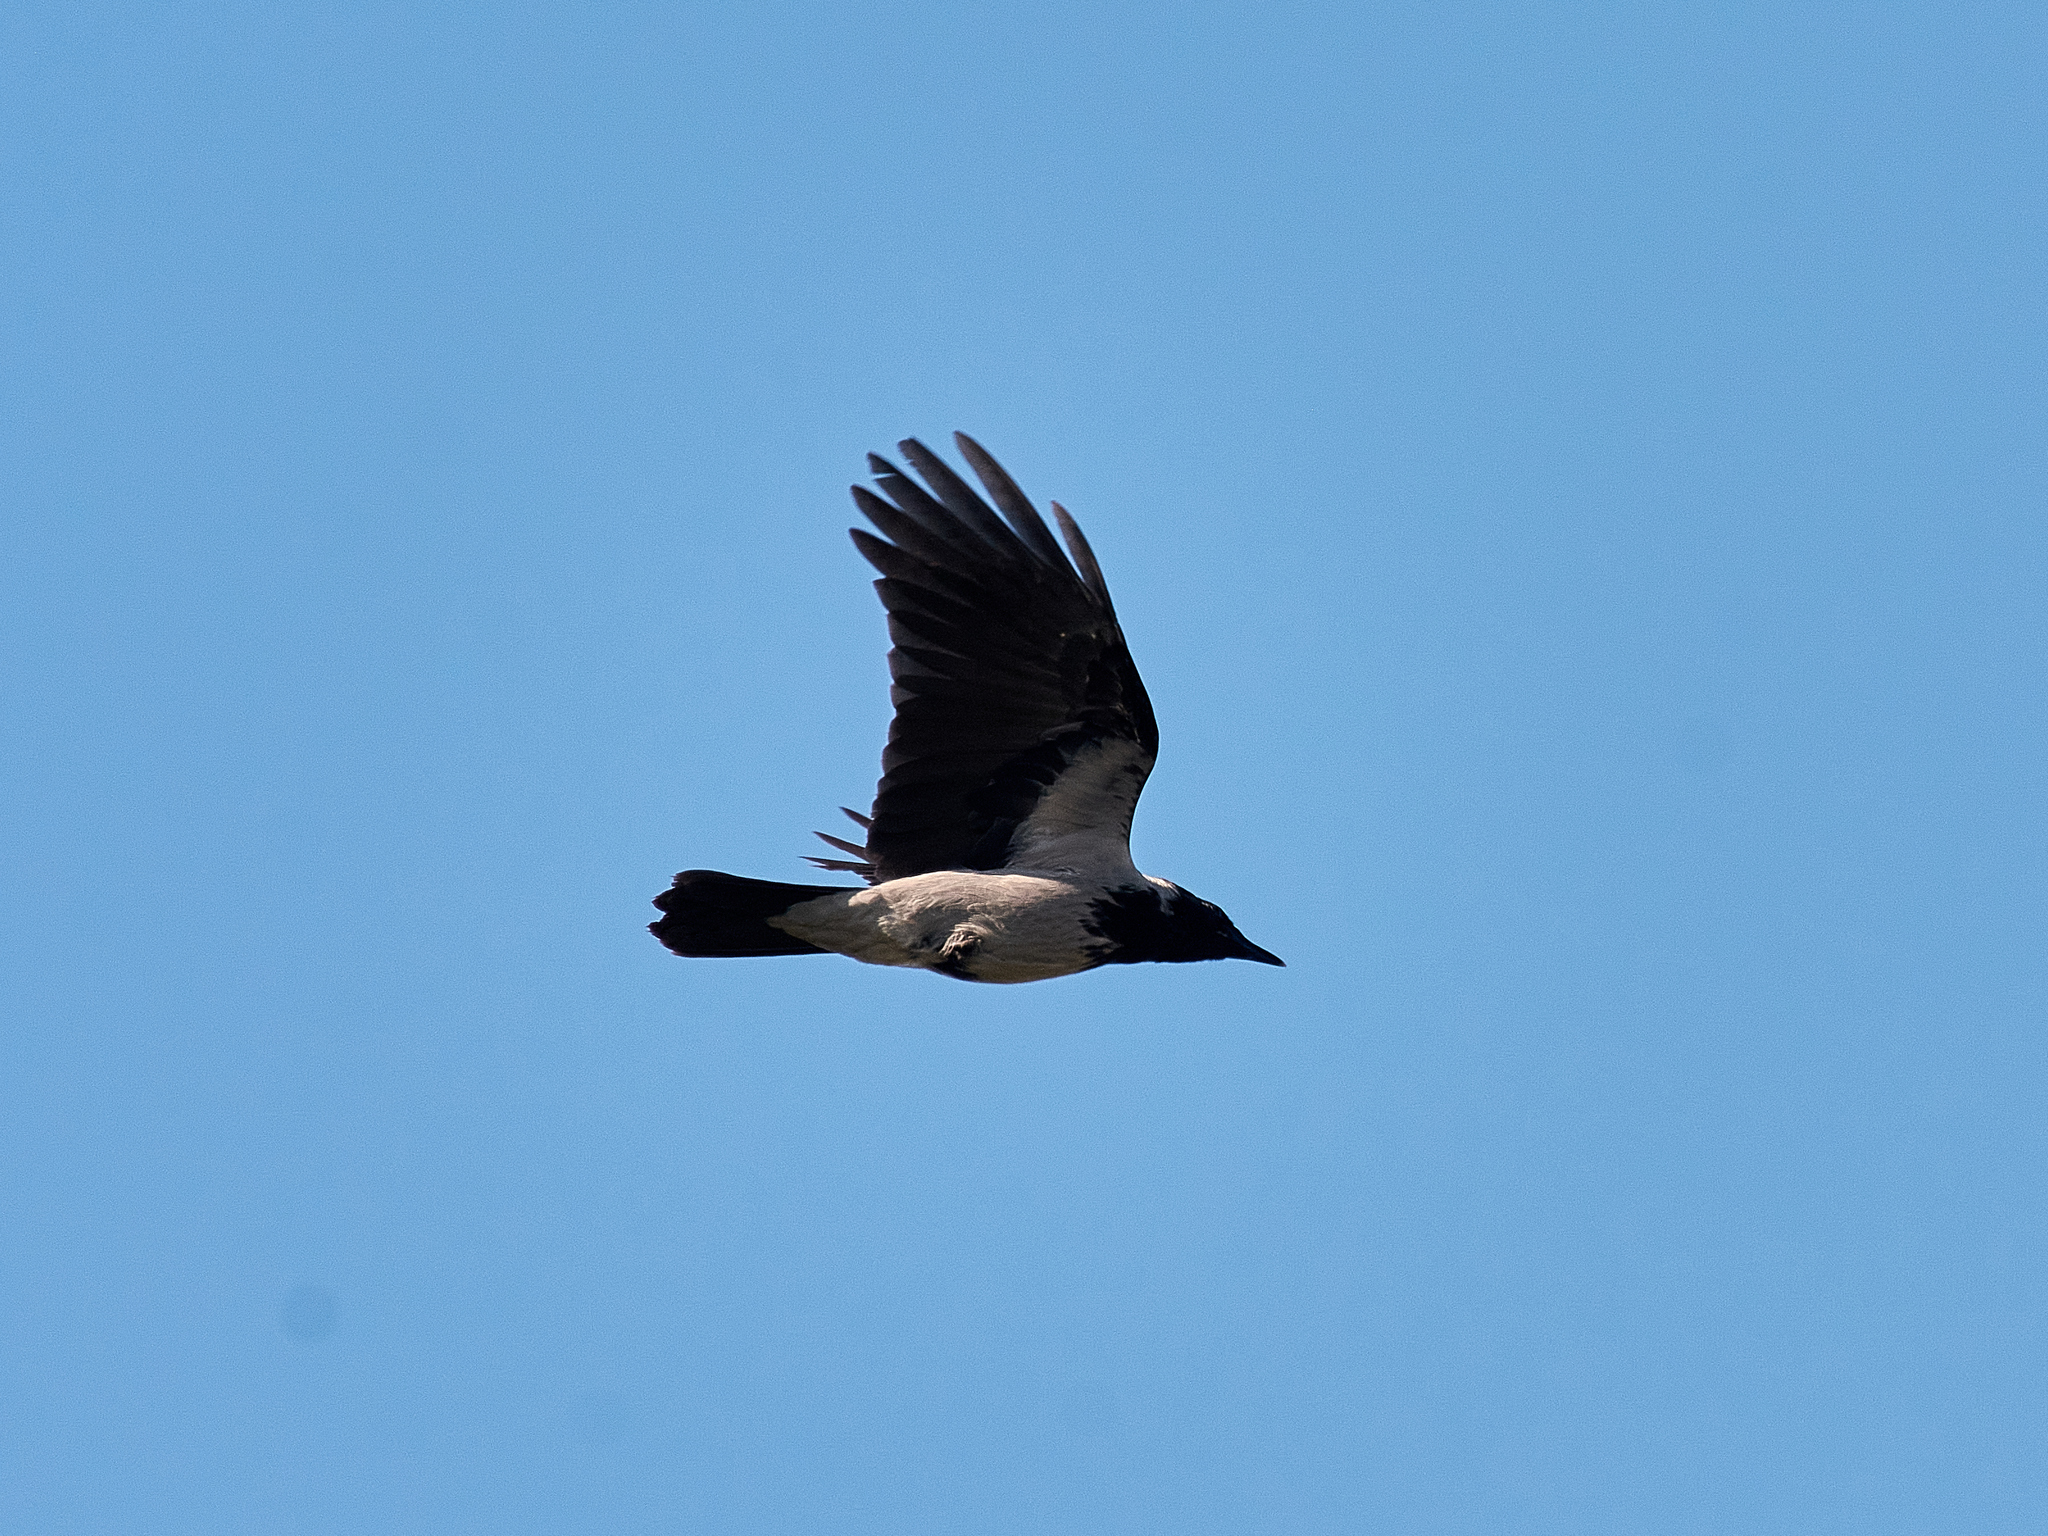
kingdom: Animalia
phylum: Chordata
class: Aves
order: Passeriformes
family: Corvidae
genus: Corvus
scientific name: Corvus cornix
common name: Hooded crow
